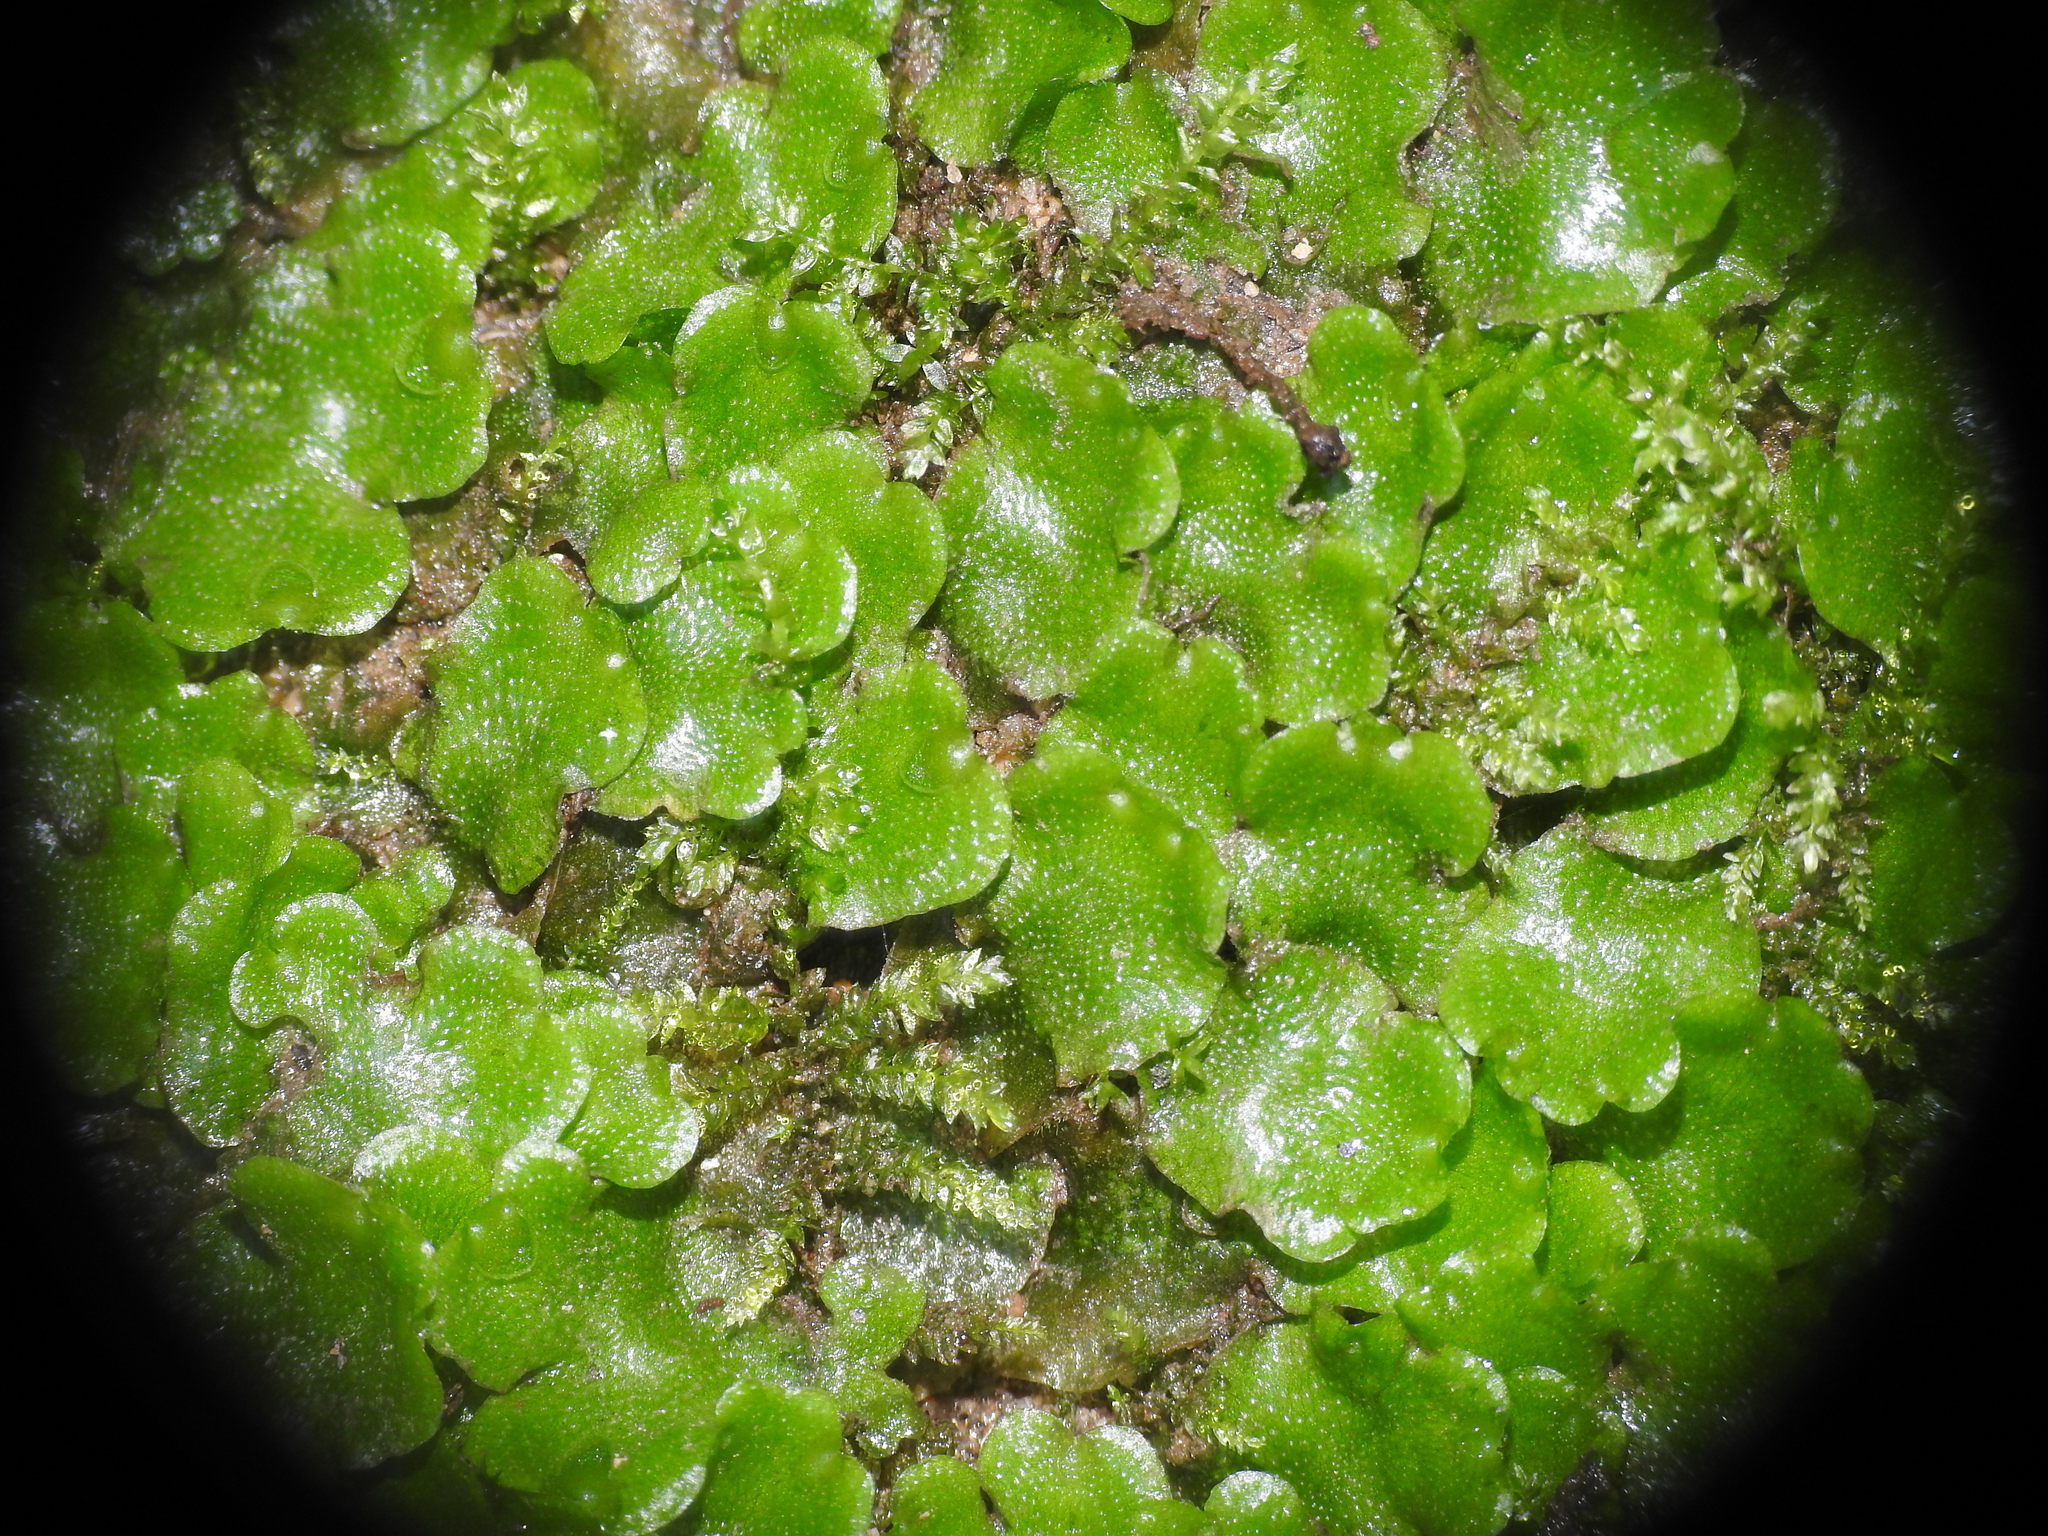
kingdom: Plantae
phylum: Marchantiophyta
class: Marchantiopsida
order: Lunulariales
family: Lunulariaceae
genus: Lunularia
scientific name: Lunularia cruciata
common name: Crescent-cup liverwort
